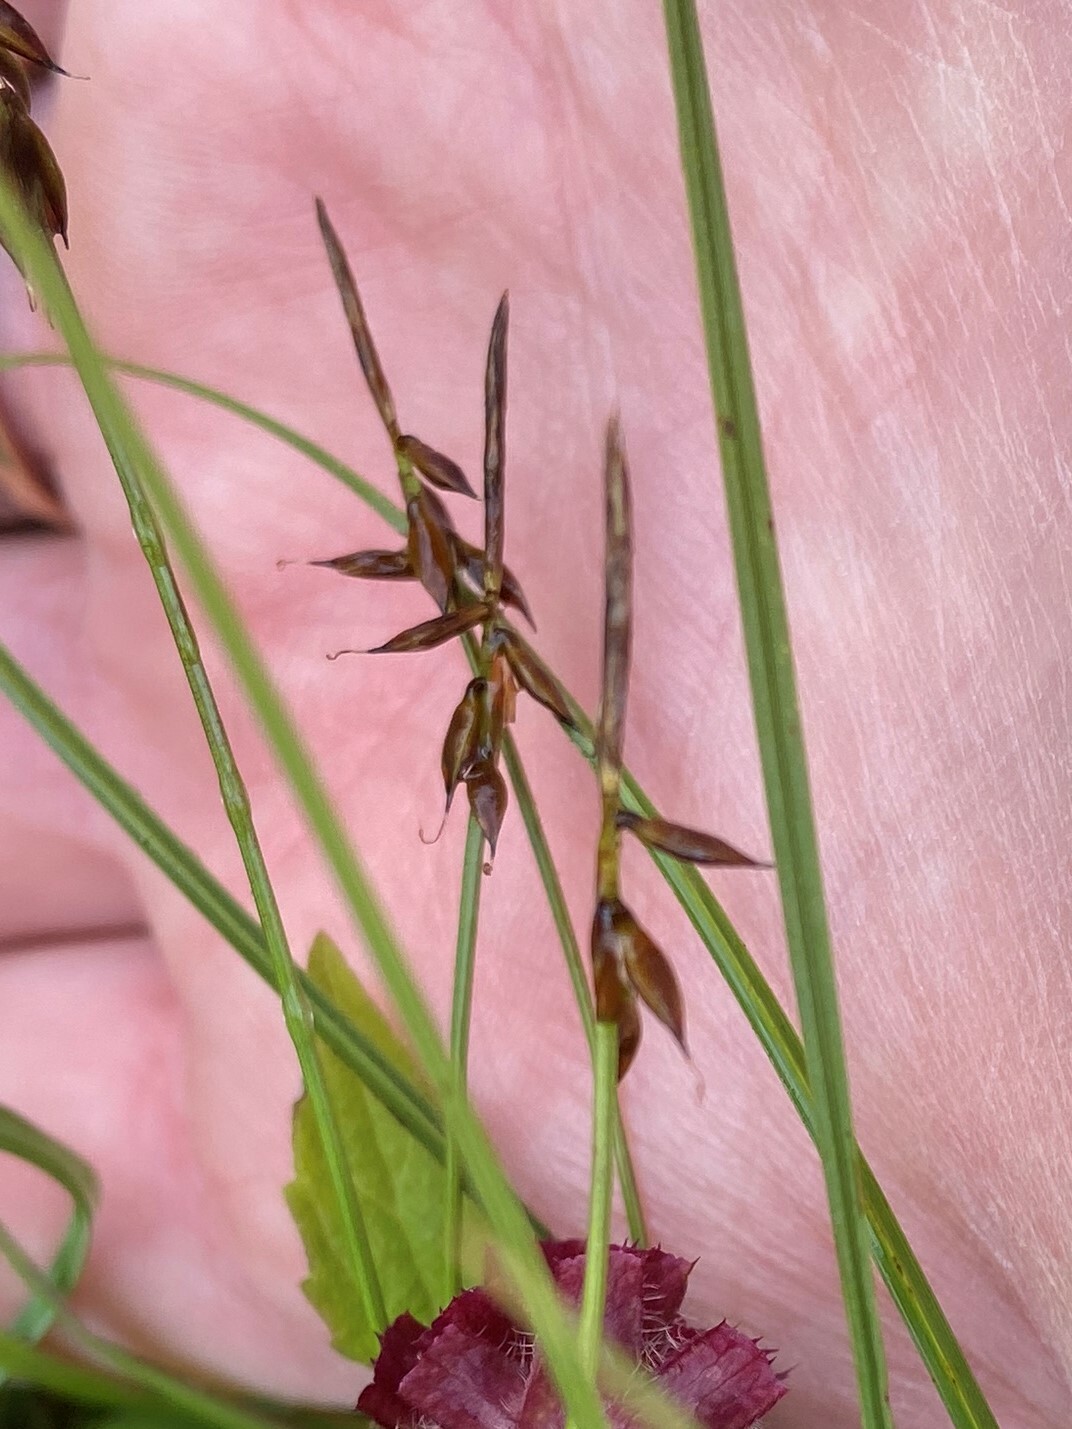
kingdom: Plantae
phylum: Tracheophyta
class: Liliopsida
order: Poales
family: Cyperaceae
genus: Carex
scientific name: Carex pulicaris
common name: Flea sedge
